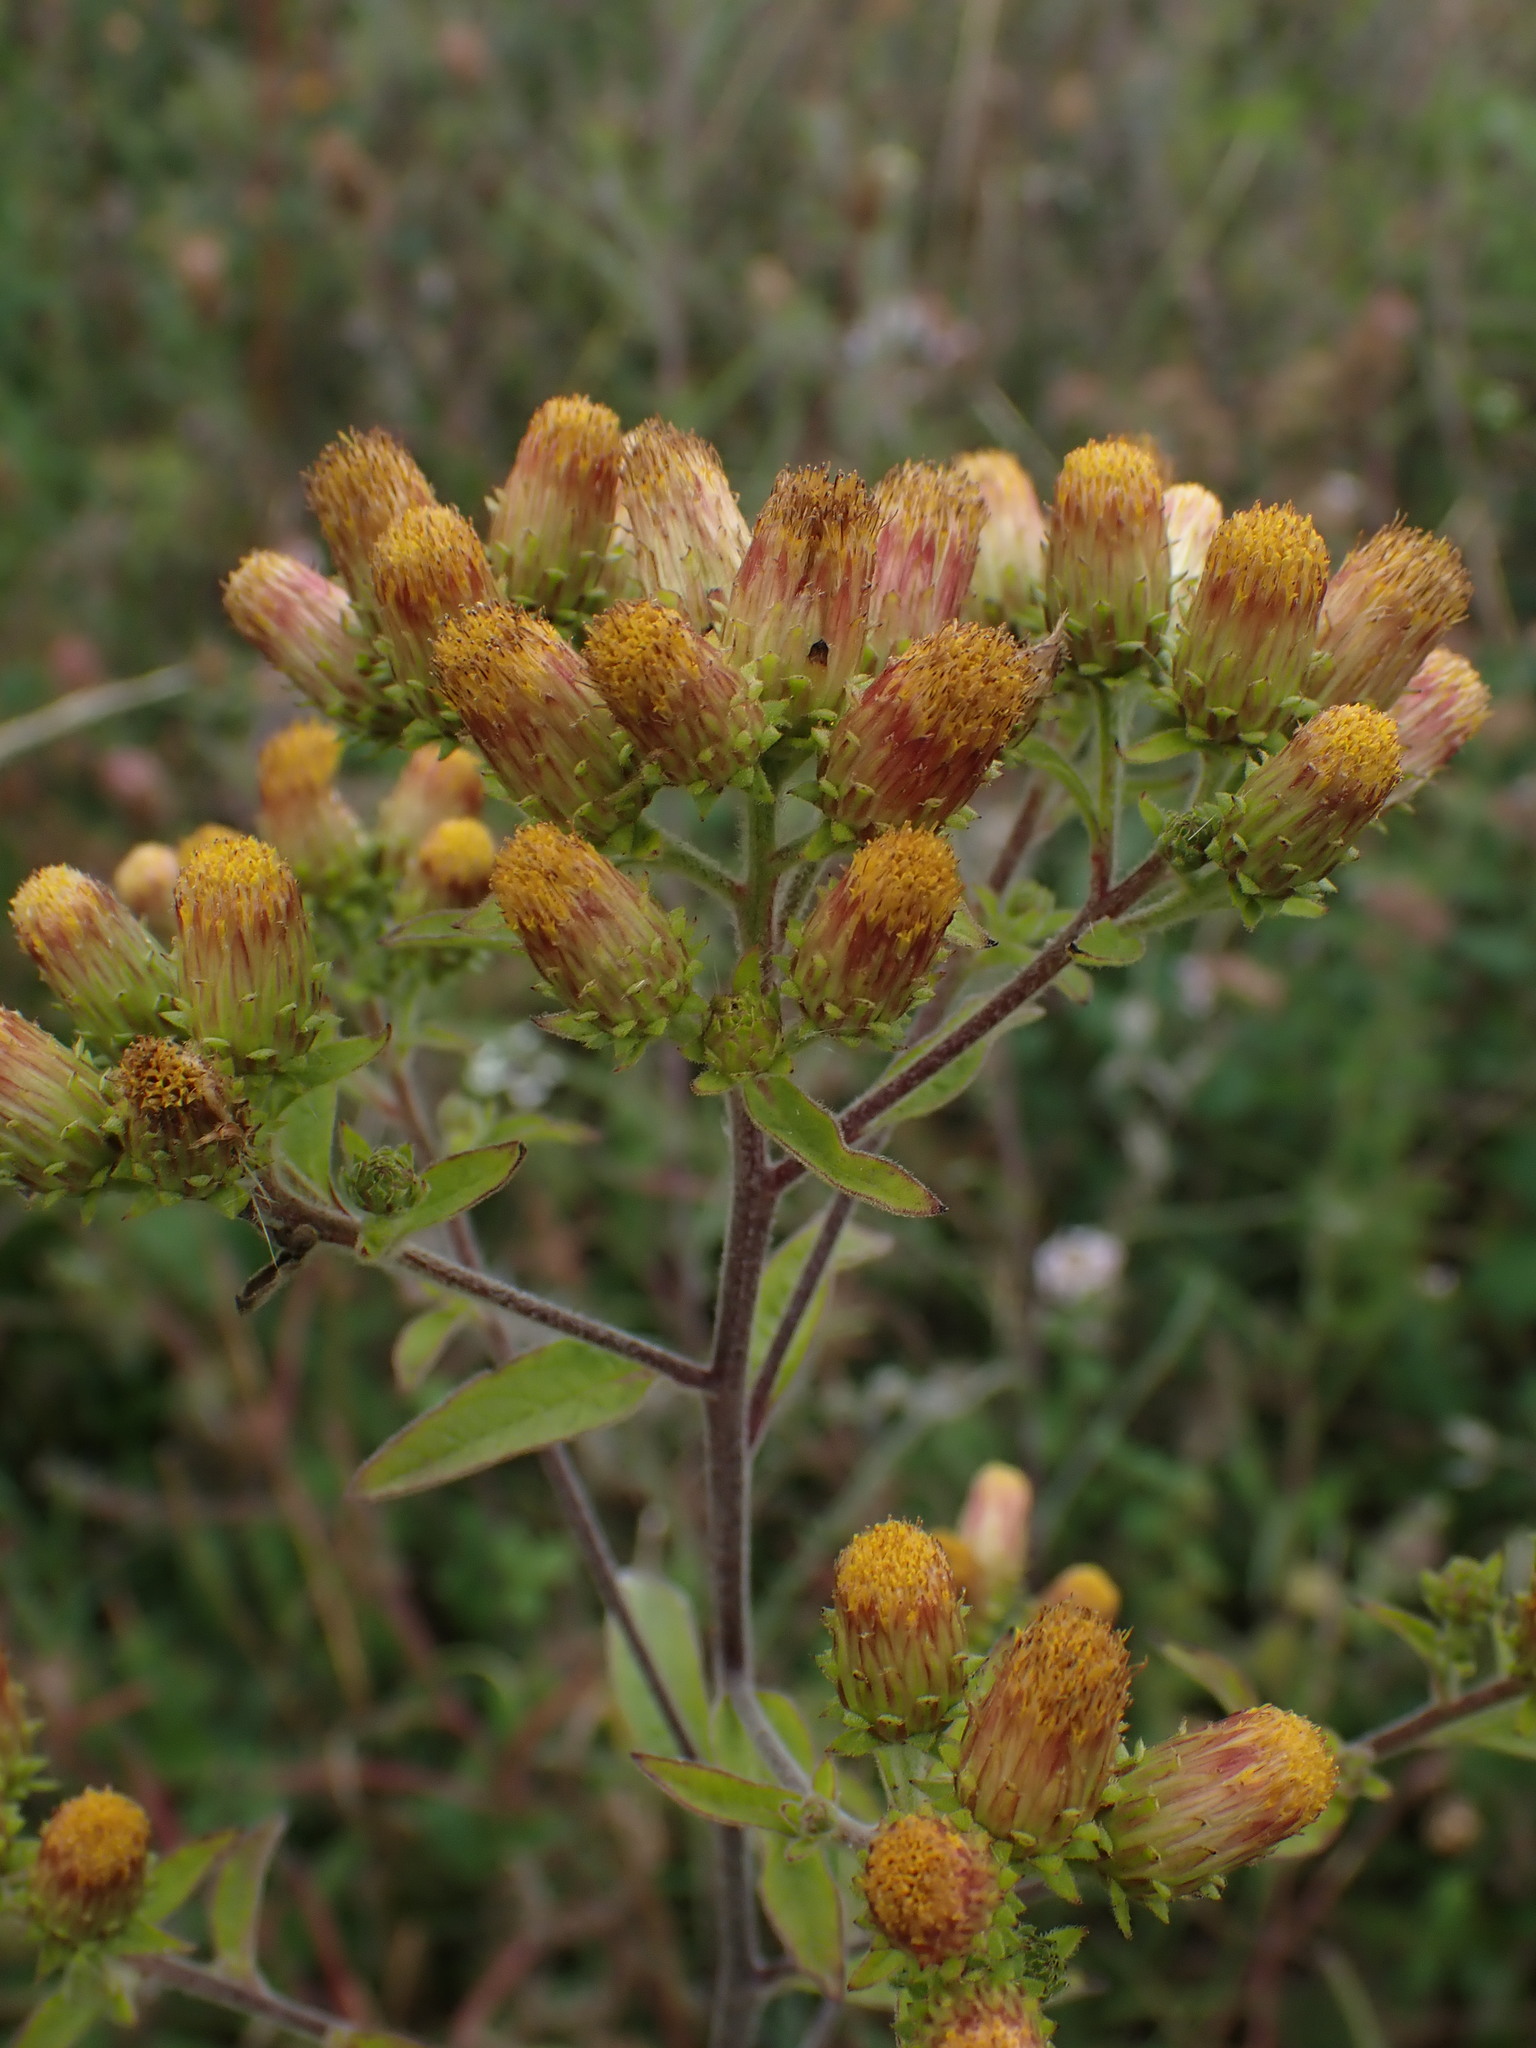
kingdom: Plantae
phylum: Tracheophyta
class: Magnoliopsida
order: Asterales
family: Asteraceae
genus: Pentanema
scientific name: Pentanema squarrosum
